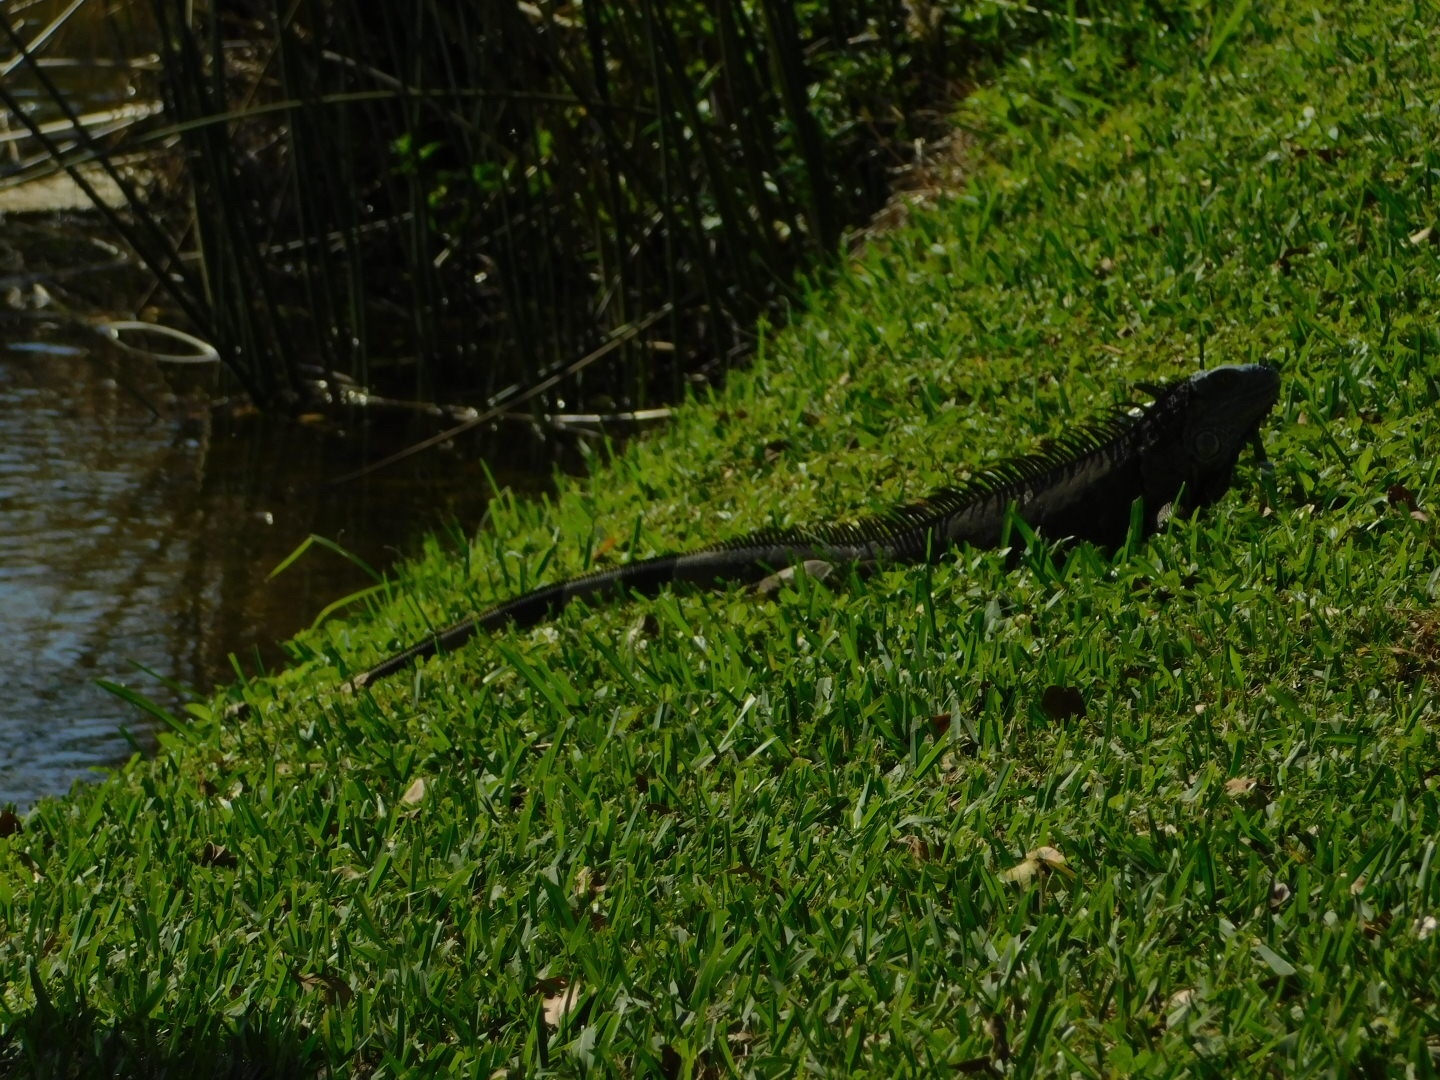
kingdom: Animalia
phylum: Chordata
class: Squamata
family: Iguanidae
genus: Iguana
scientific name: Iguana iguana
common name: Green iguana
